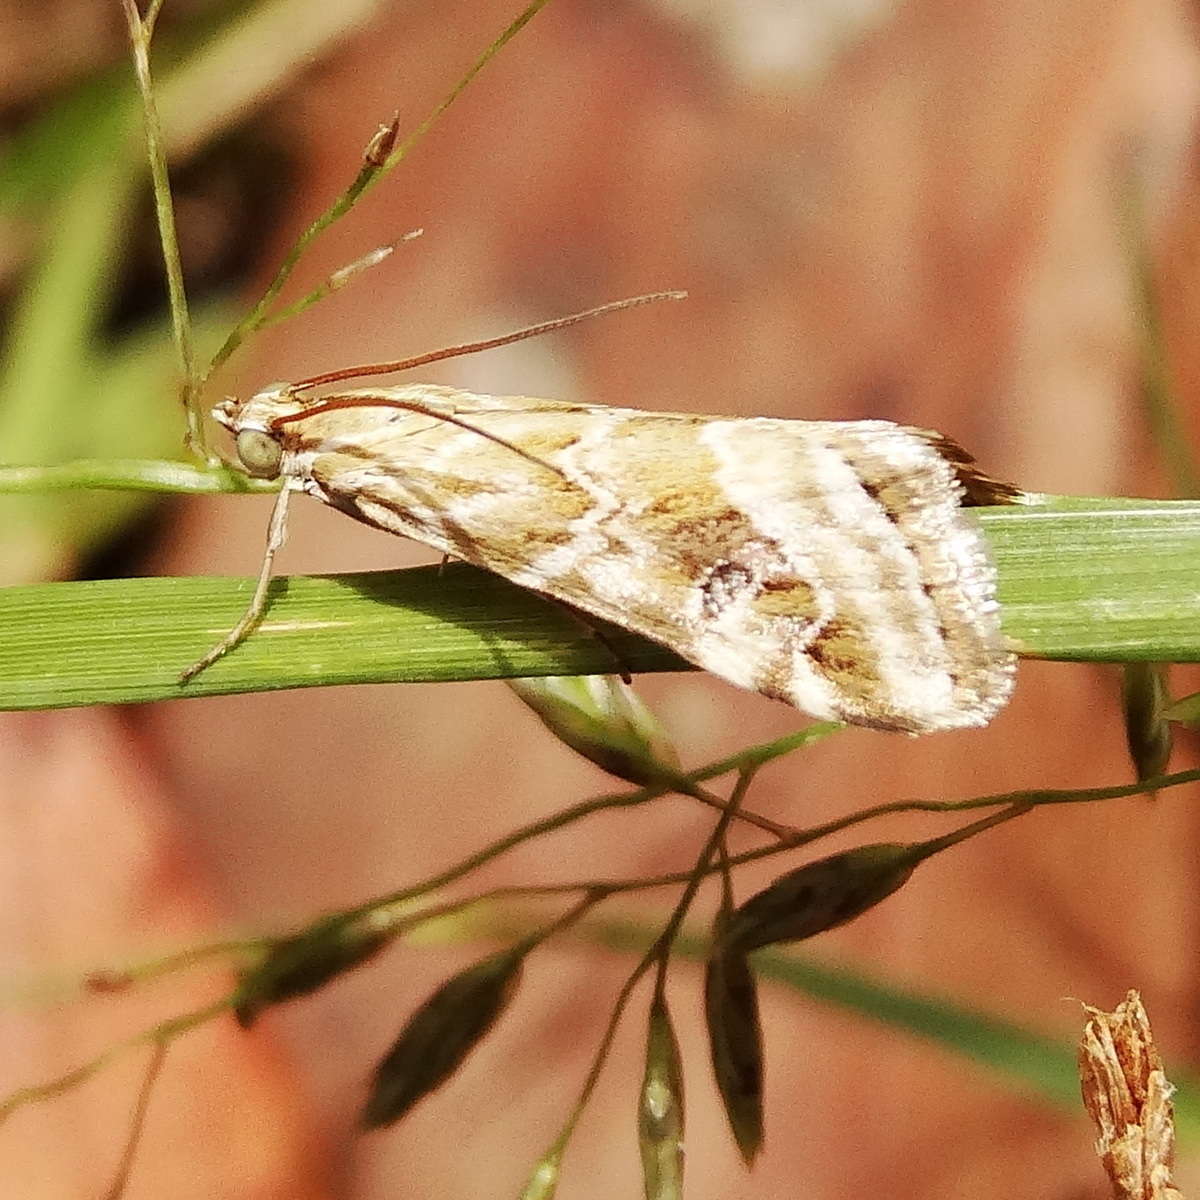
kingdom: Animalia
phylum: Arthropoda
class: Insecta
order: Lepidoptera
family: Crambidae
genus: Hellula
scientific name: Hellula hydralis
